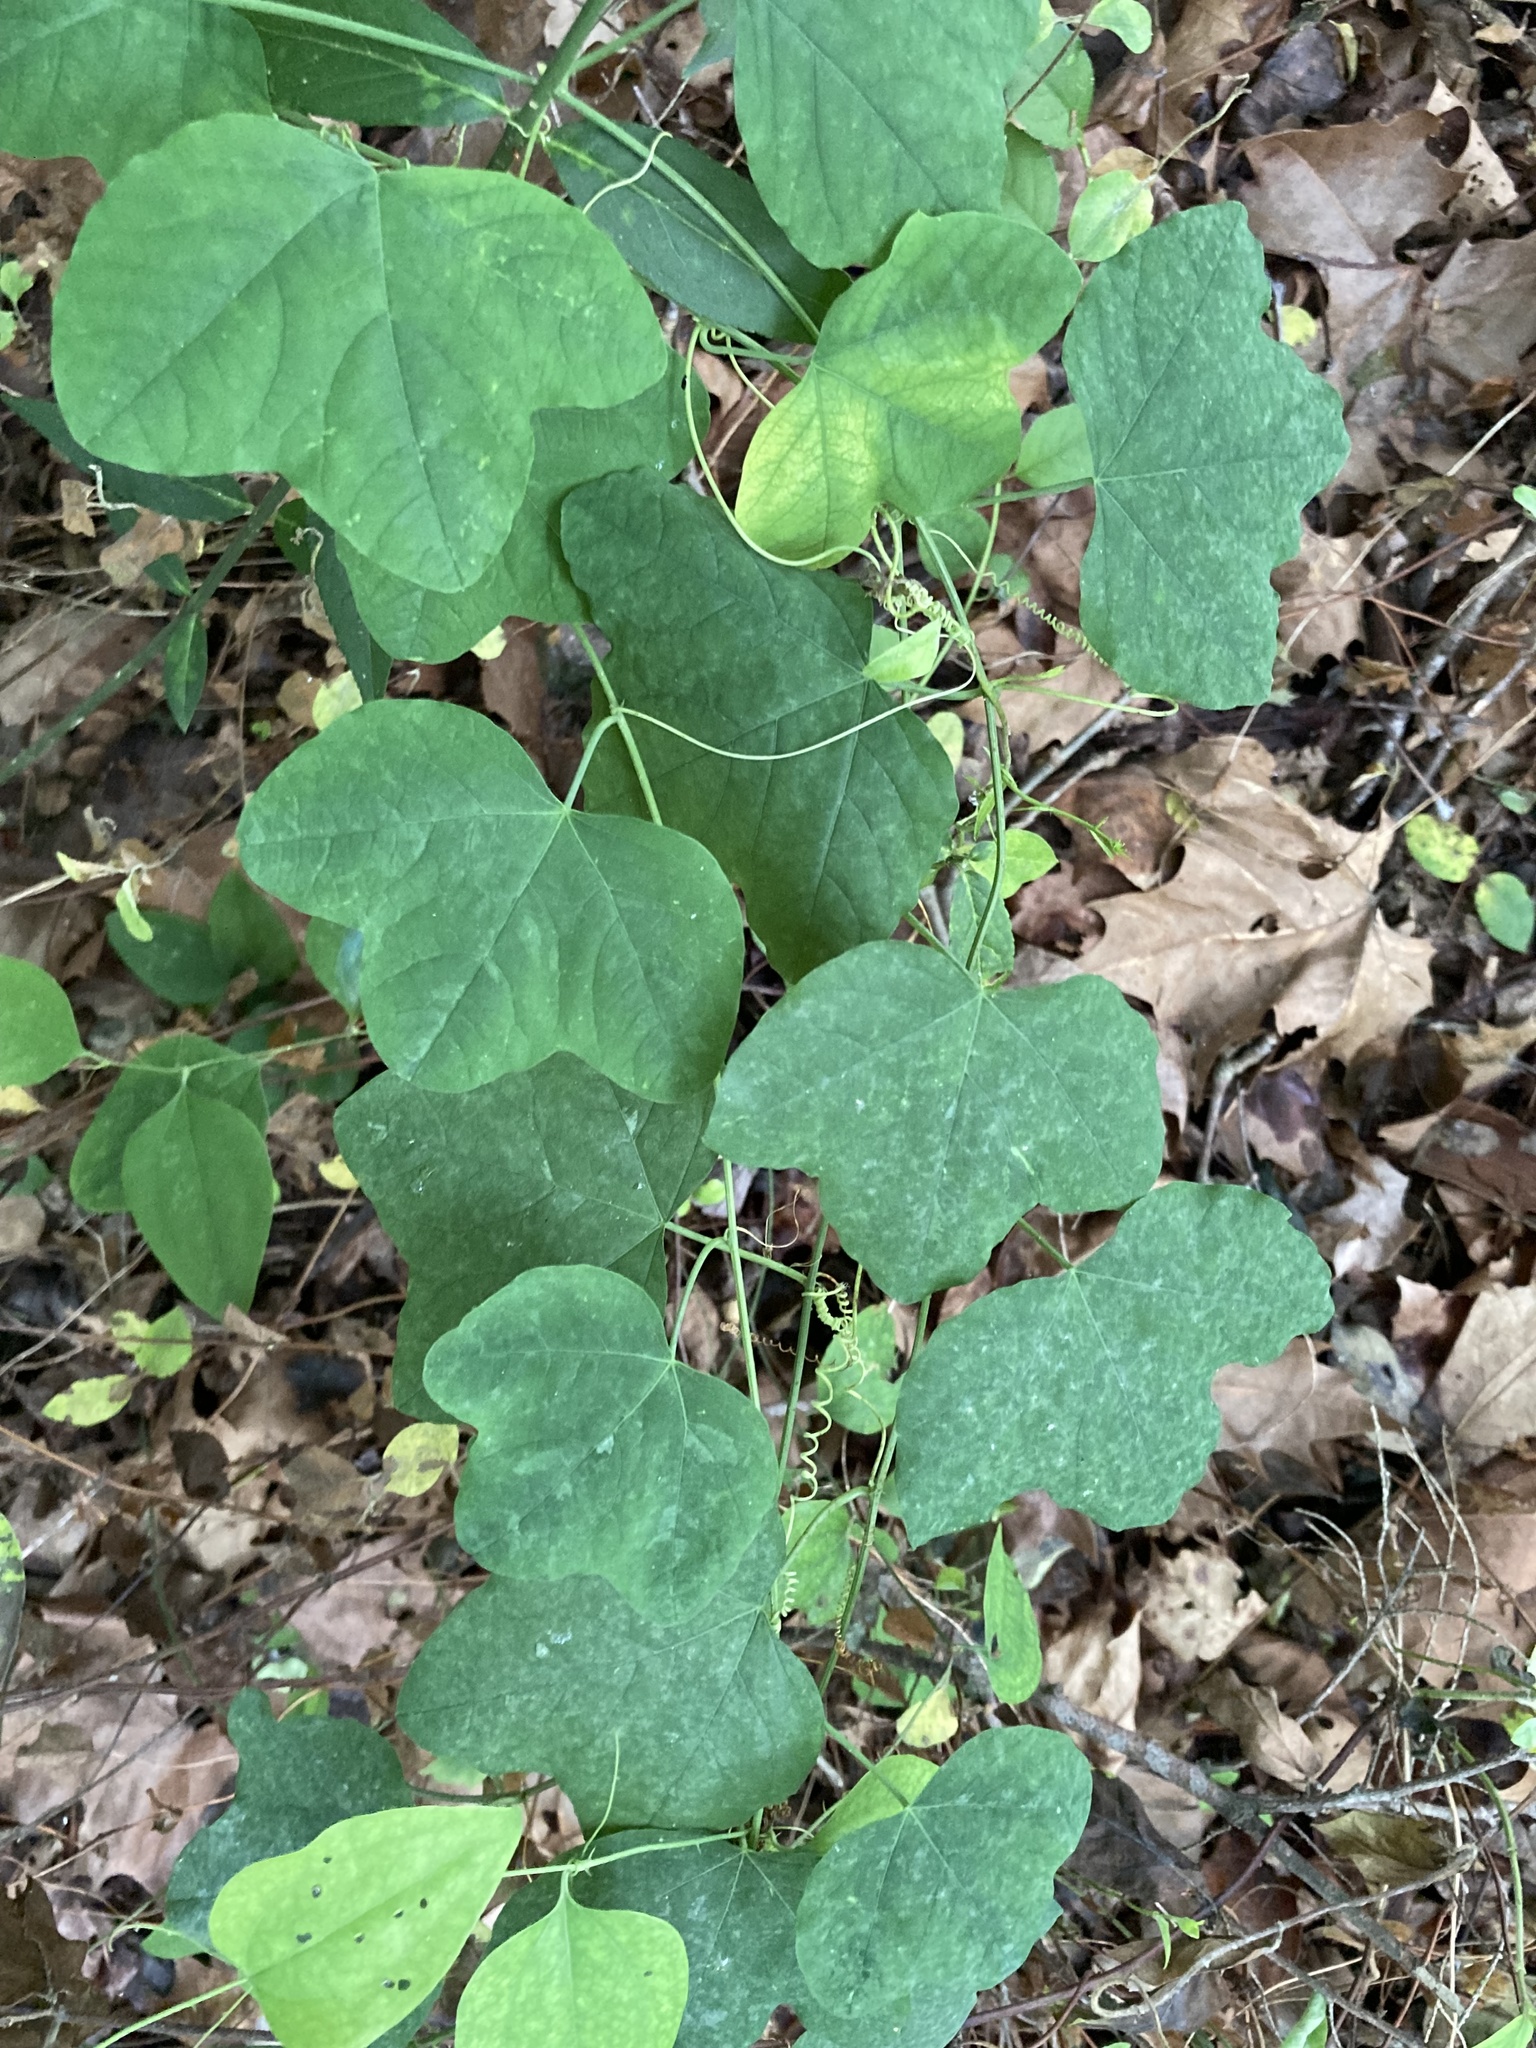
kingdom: Plantae
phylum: Tracheophyta
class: Magnoliopsida
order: Malpighiales
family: Passifloraceae
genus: Passiflora
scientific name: Passiflora lutea
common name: Yellow passionflower
